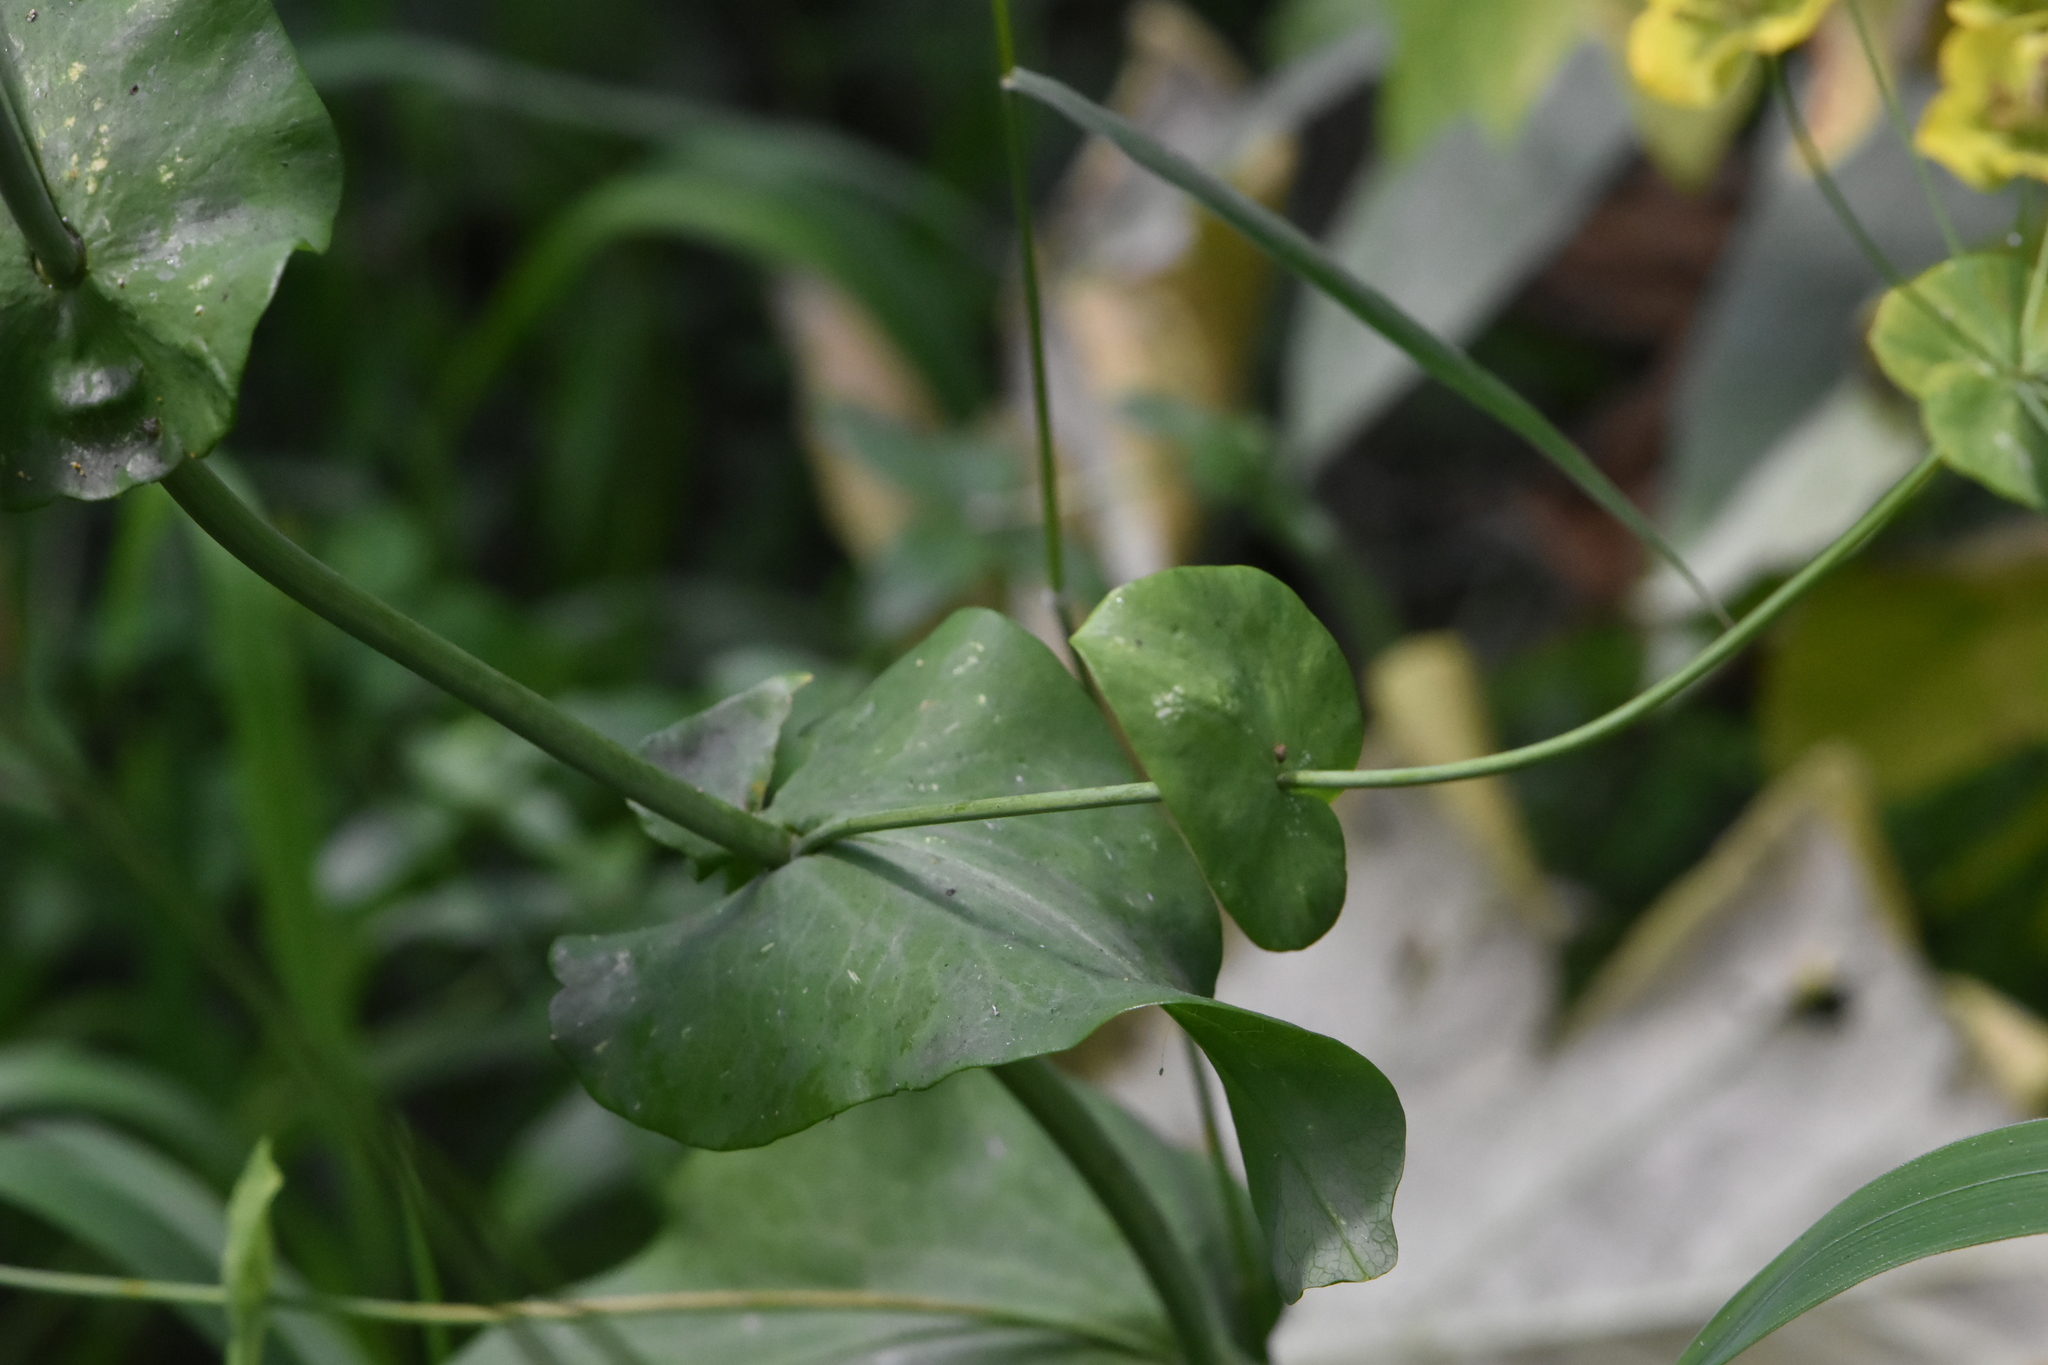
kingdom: Plantae
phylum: Tracheophyta
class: Magnoliopsida
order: Apiales
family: Apiaceae
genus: Bupleurum
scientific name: Bupleurum aureum
